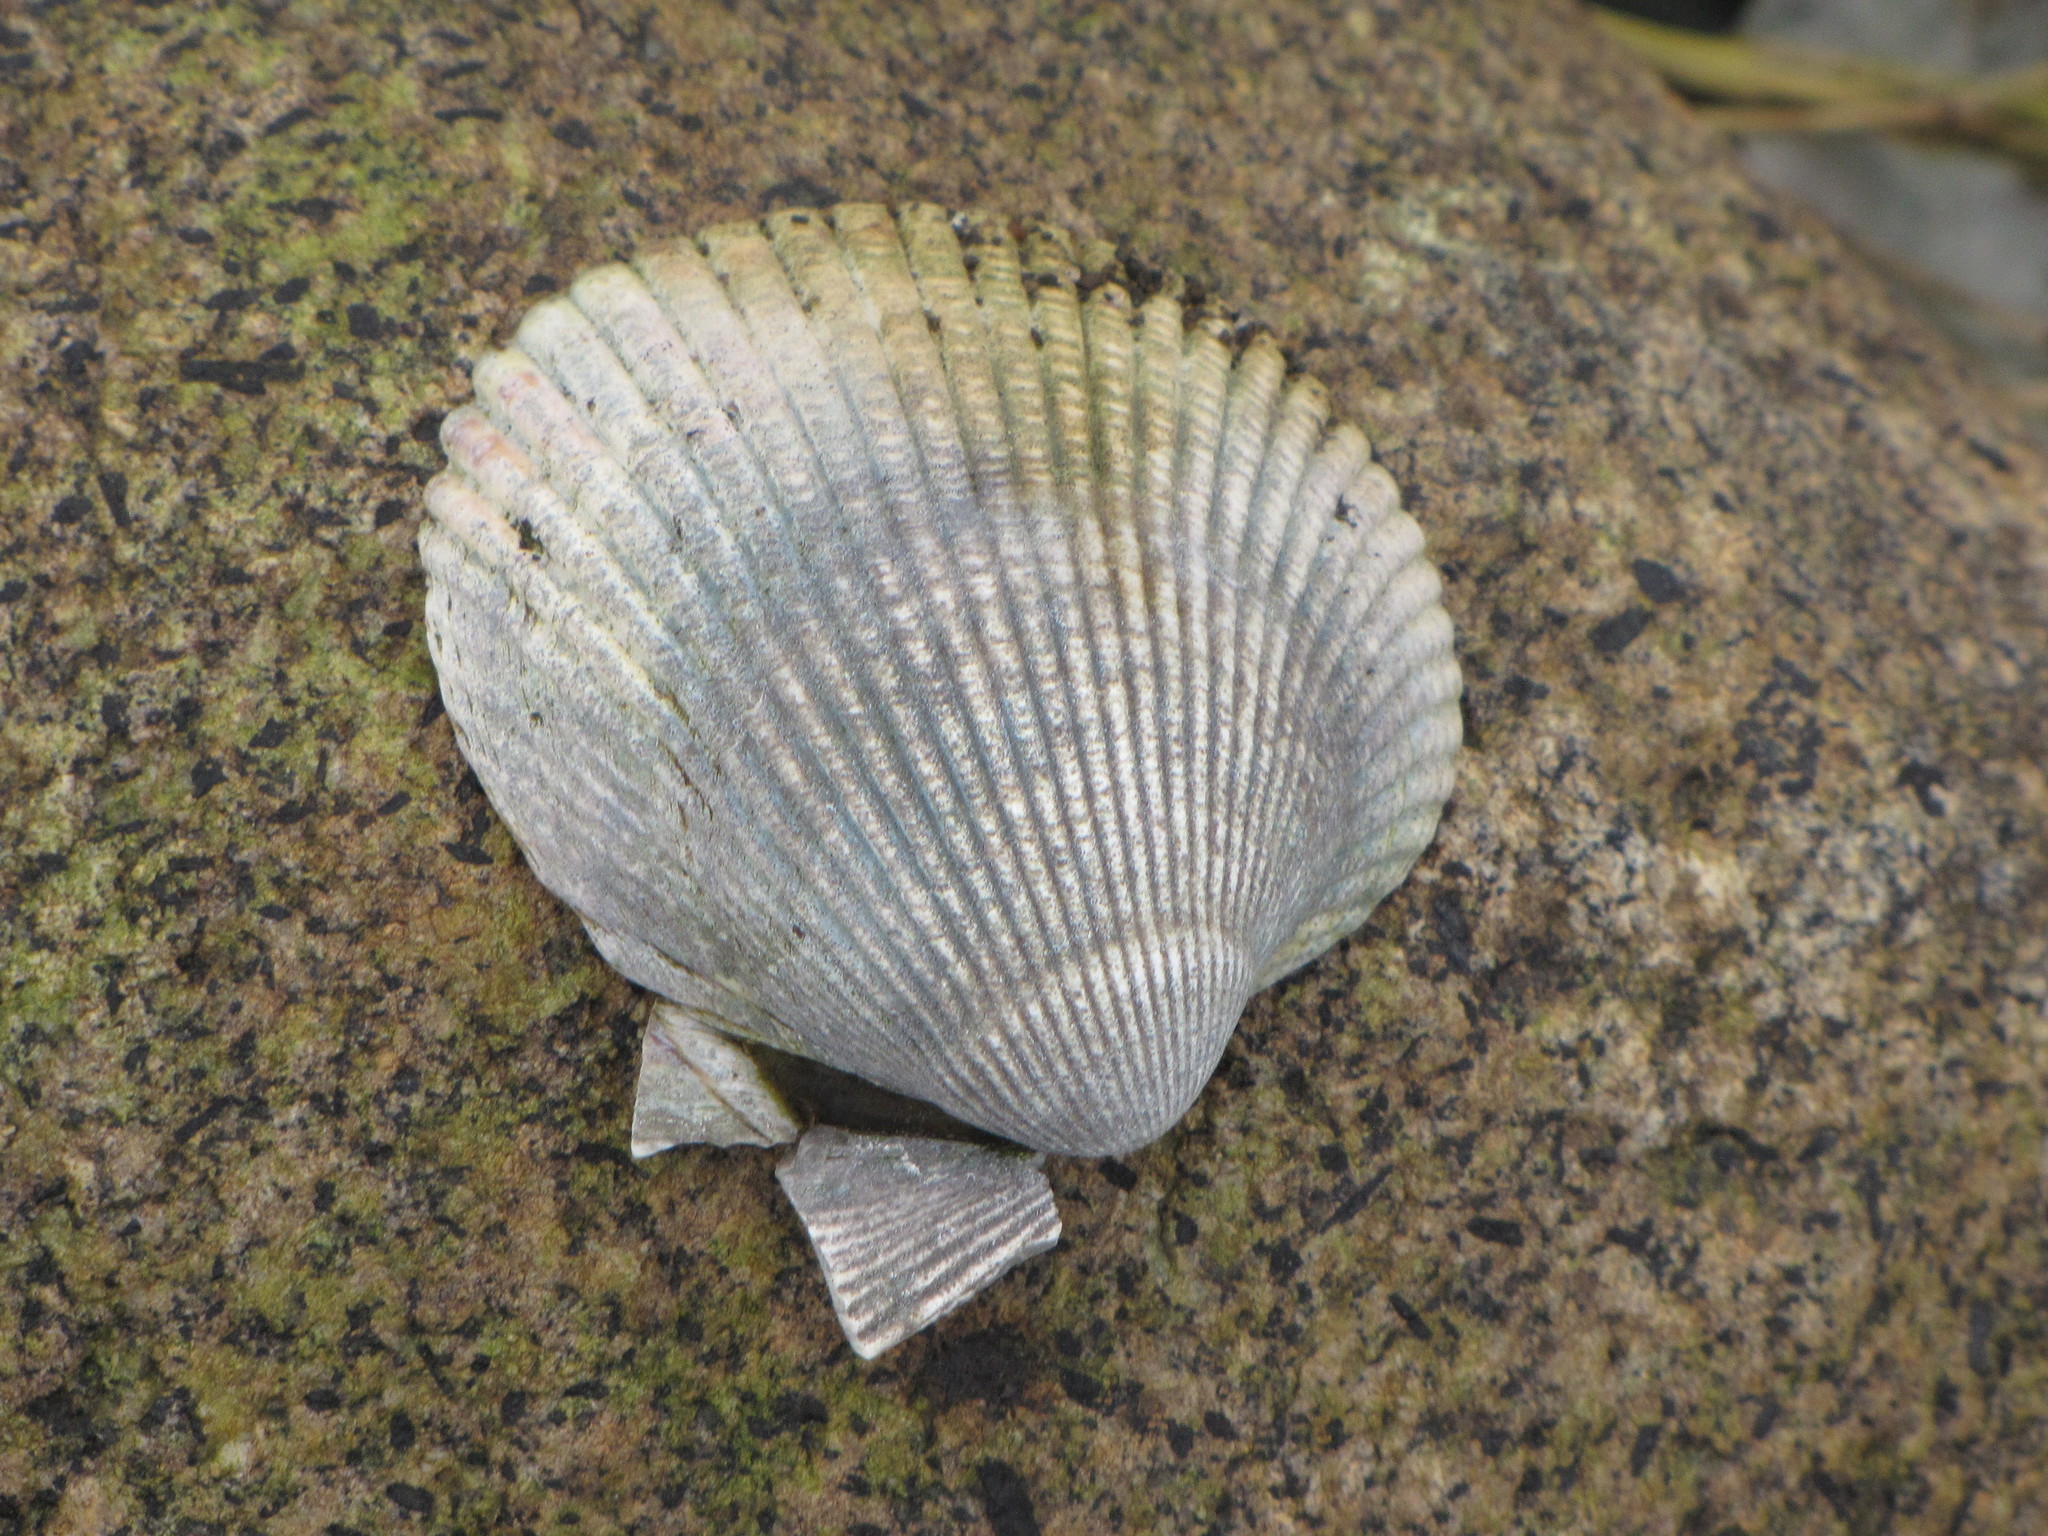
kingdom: Animalia
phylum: Mollusca
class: Bivalvia
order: Cardiida
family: Cardiidae
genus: Clinocardium
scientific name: Clinocardium nuttallii
